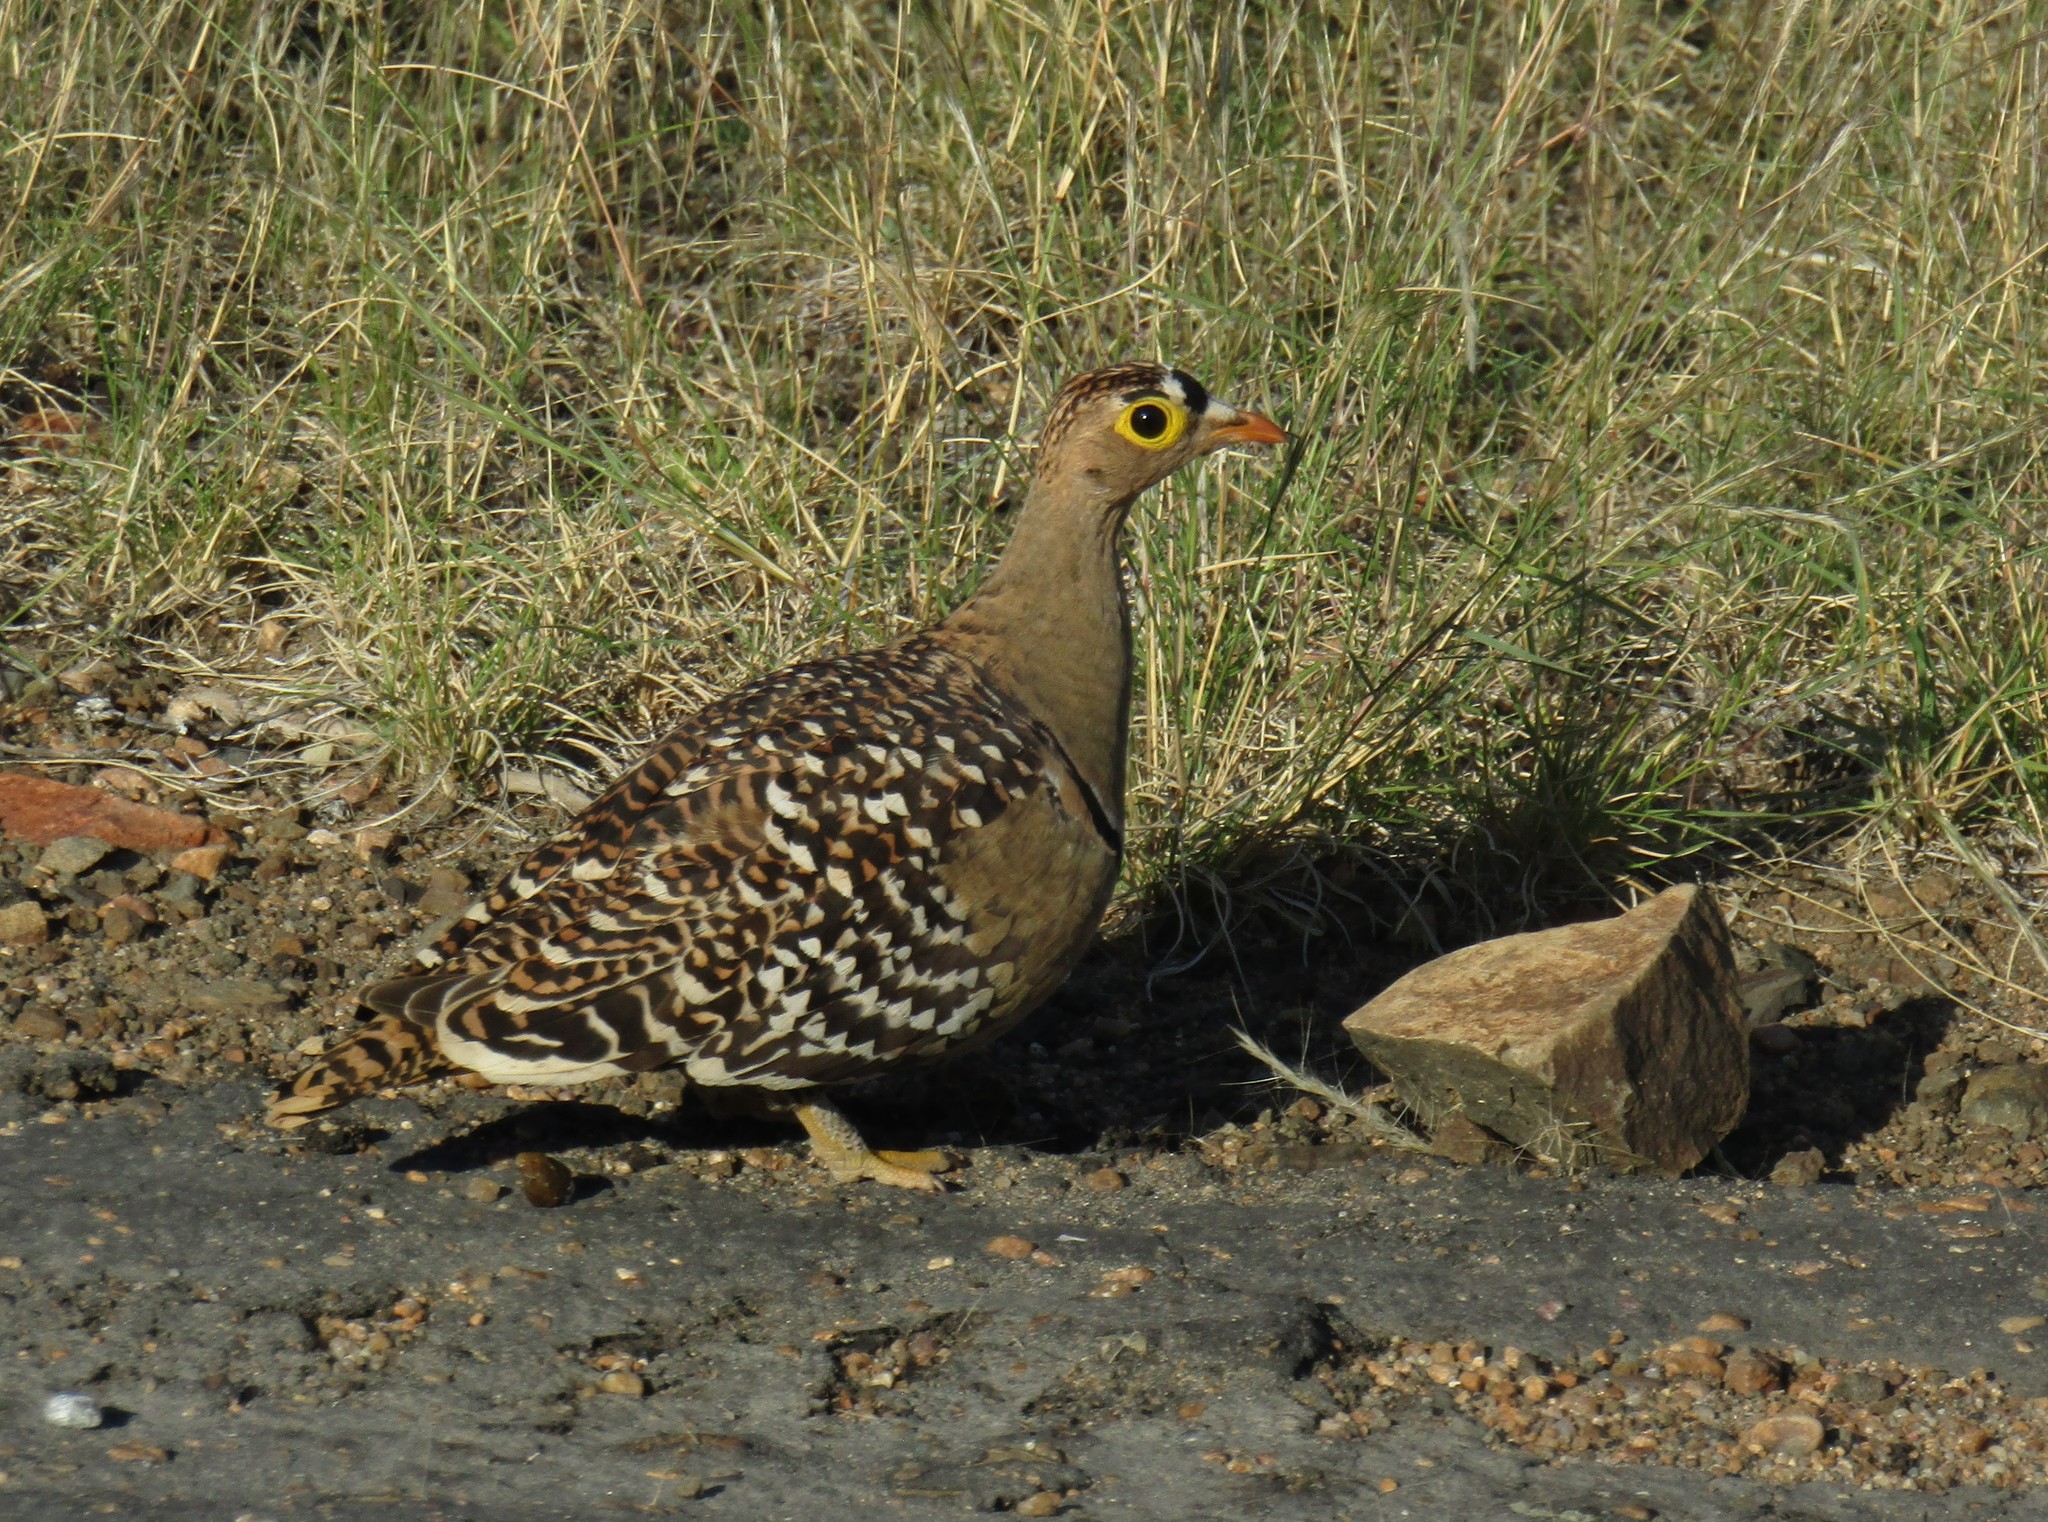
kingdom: Animalia
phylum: Chordata
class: Aves
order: Pteroclidiformes
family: Pteroclididae
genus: Pterocles
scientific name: Pterocles bicinctus
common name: Double-banded sandgrouse
